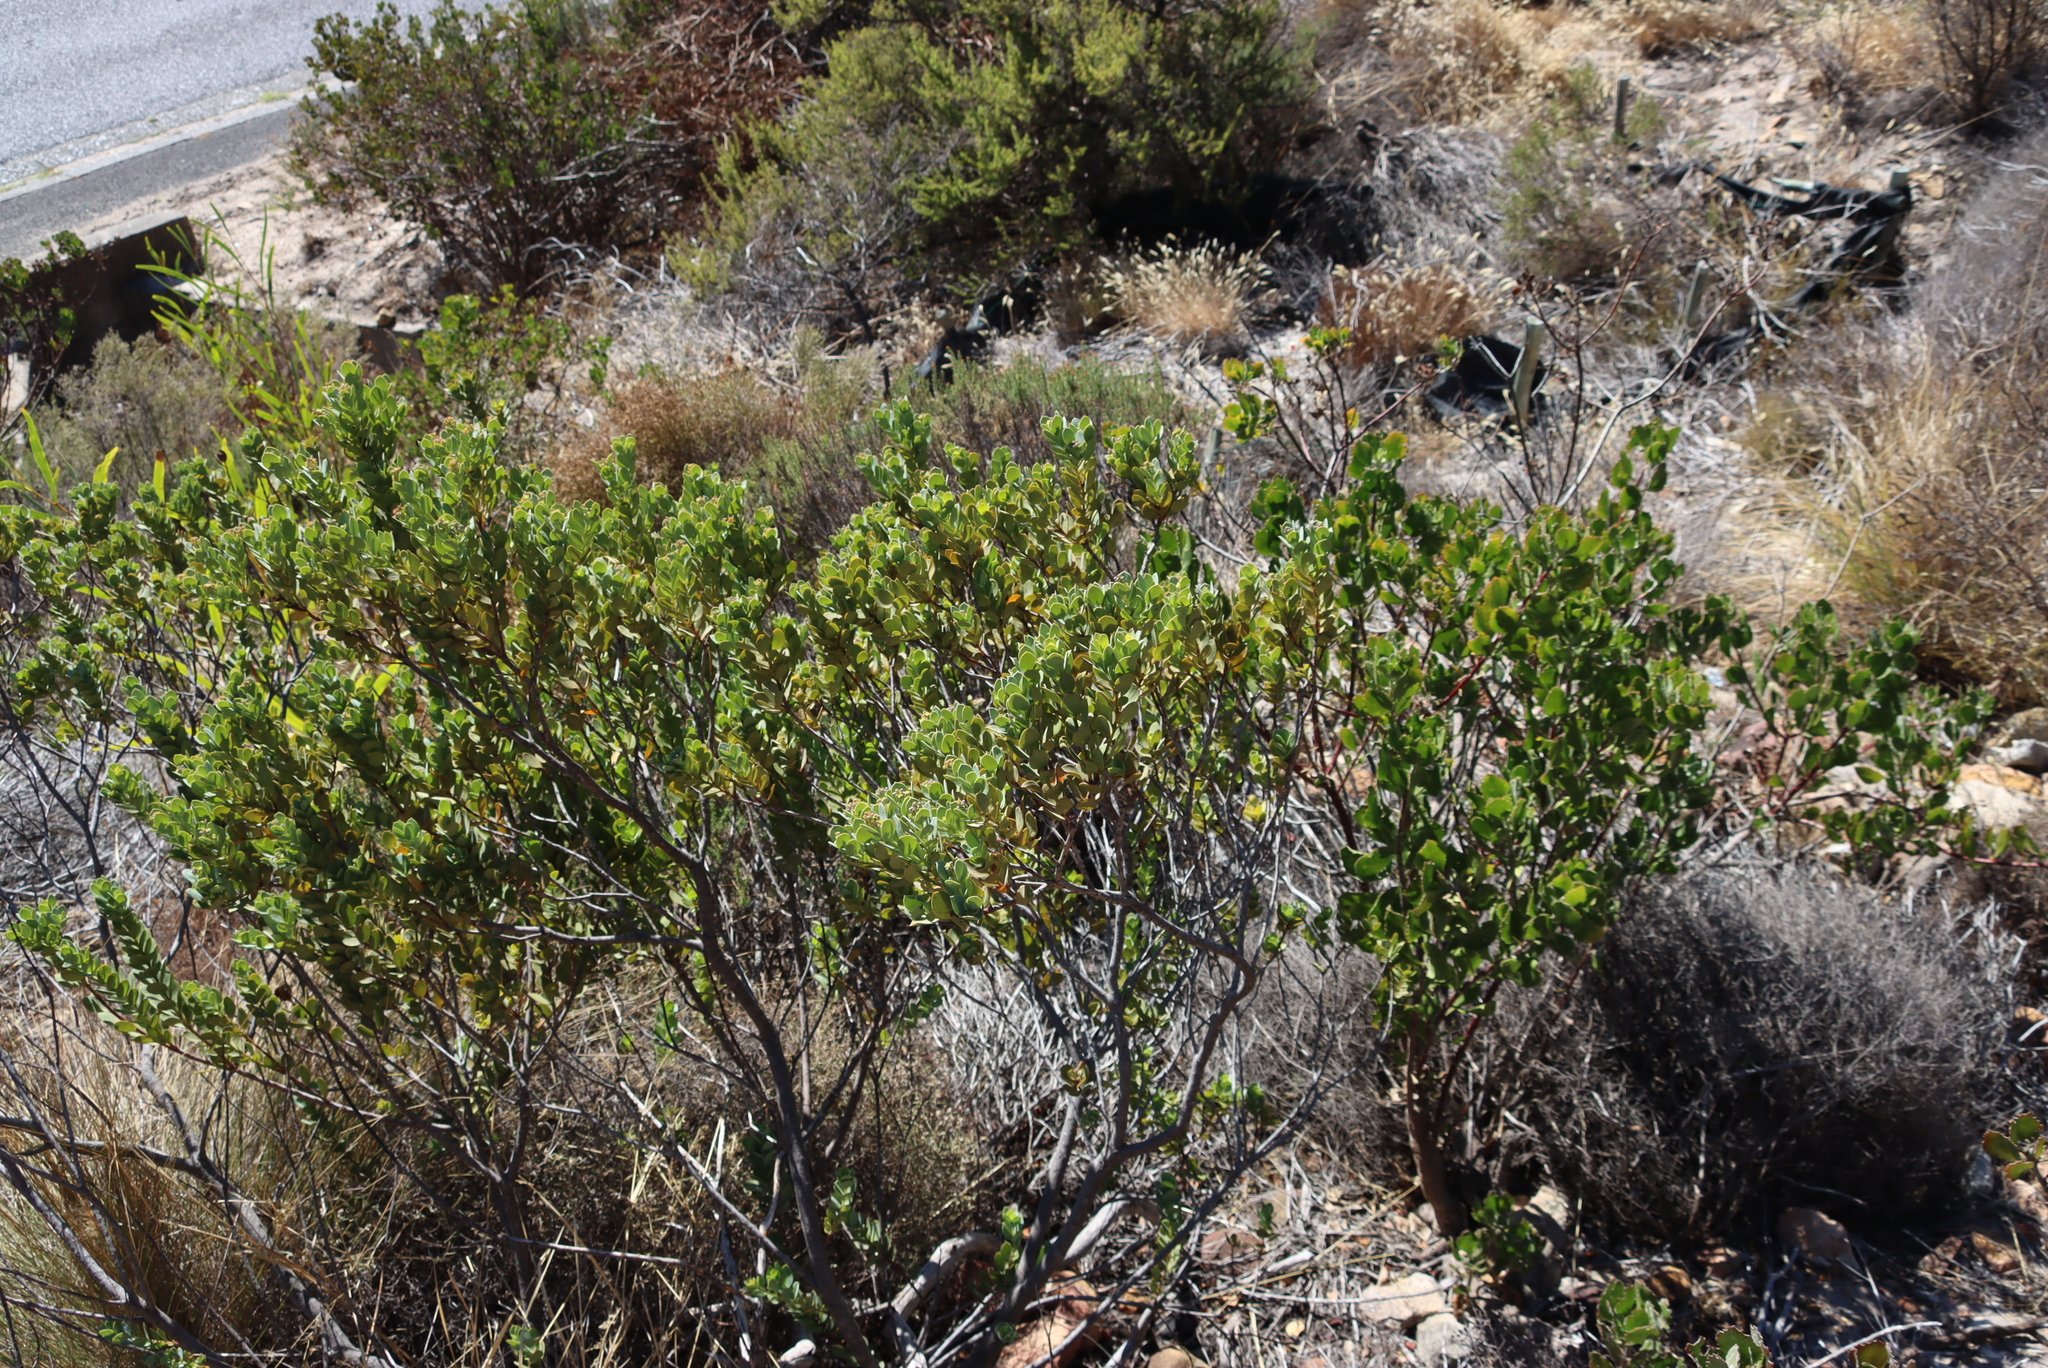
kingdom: Plantae
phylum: Tracheophyta
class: Magnoliopsida
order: Santalales
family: Santalaceae
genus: Osyris
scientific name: Osyris compressa
